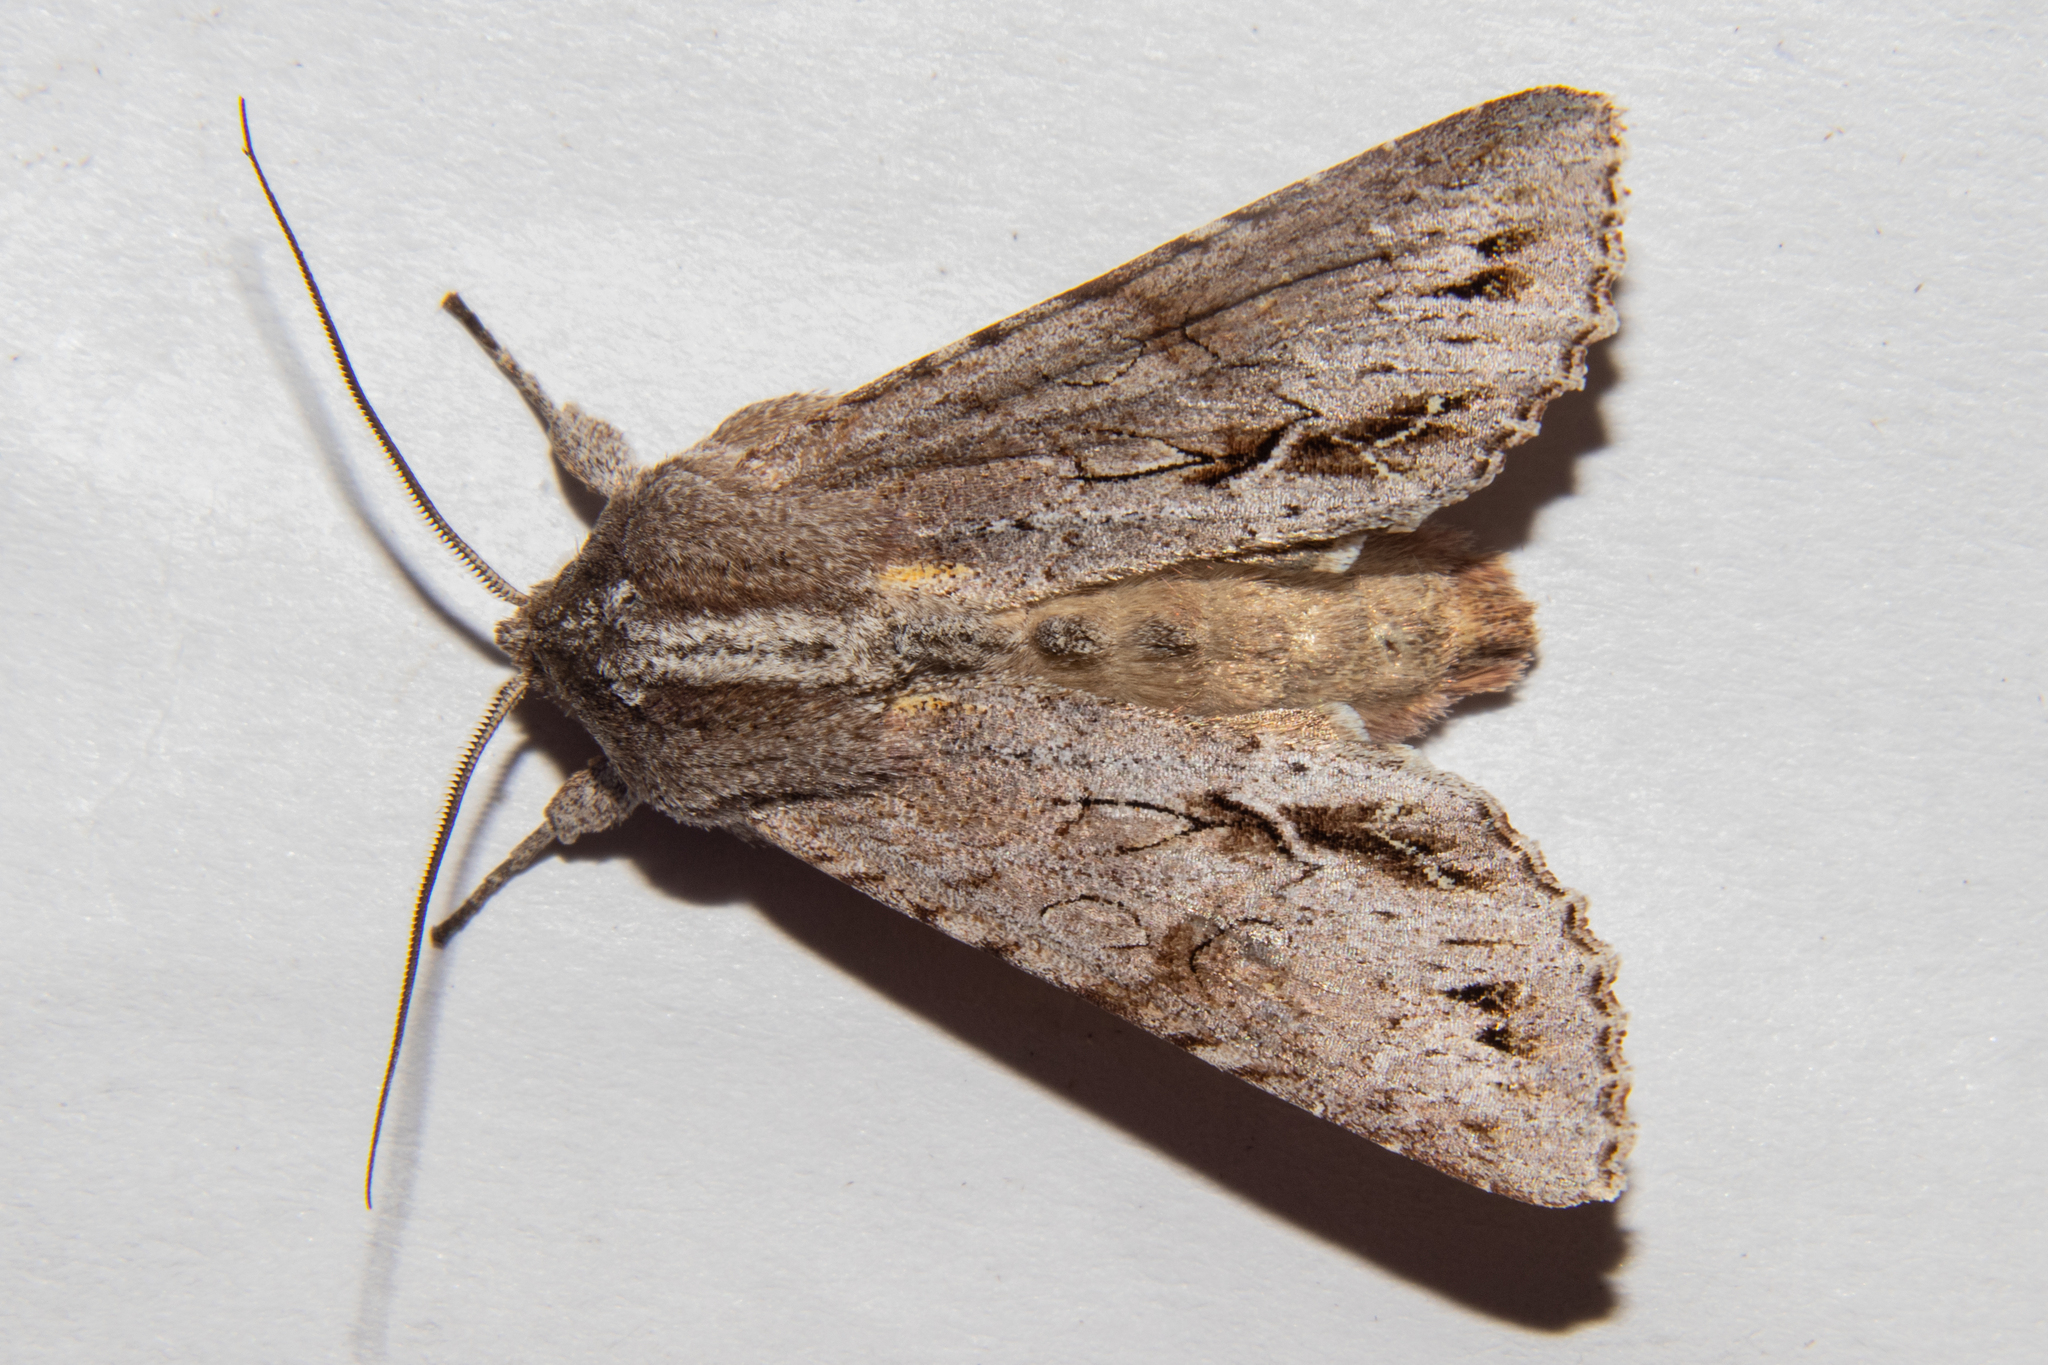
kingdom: Animalia
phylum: Arthropoda
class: Insecta
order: Lepidoptera
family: Noctuidae
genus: Ichneutica
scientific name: Ichneutica
